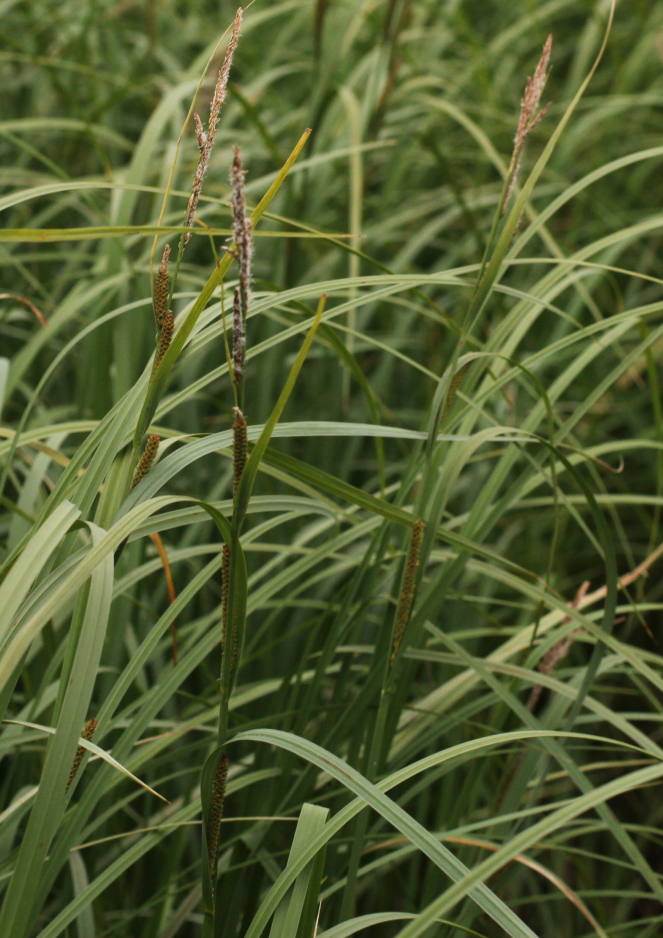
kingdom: Plantae
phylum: Tracheophyta
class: Liliopsida
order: Poales
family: Cyperaceae
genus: Carex
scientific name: Carex aquatilis
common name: Water sedge
